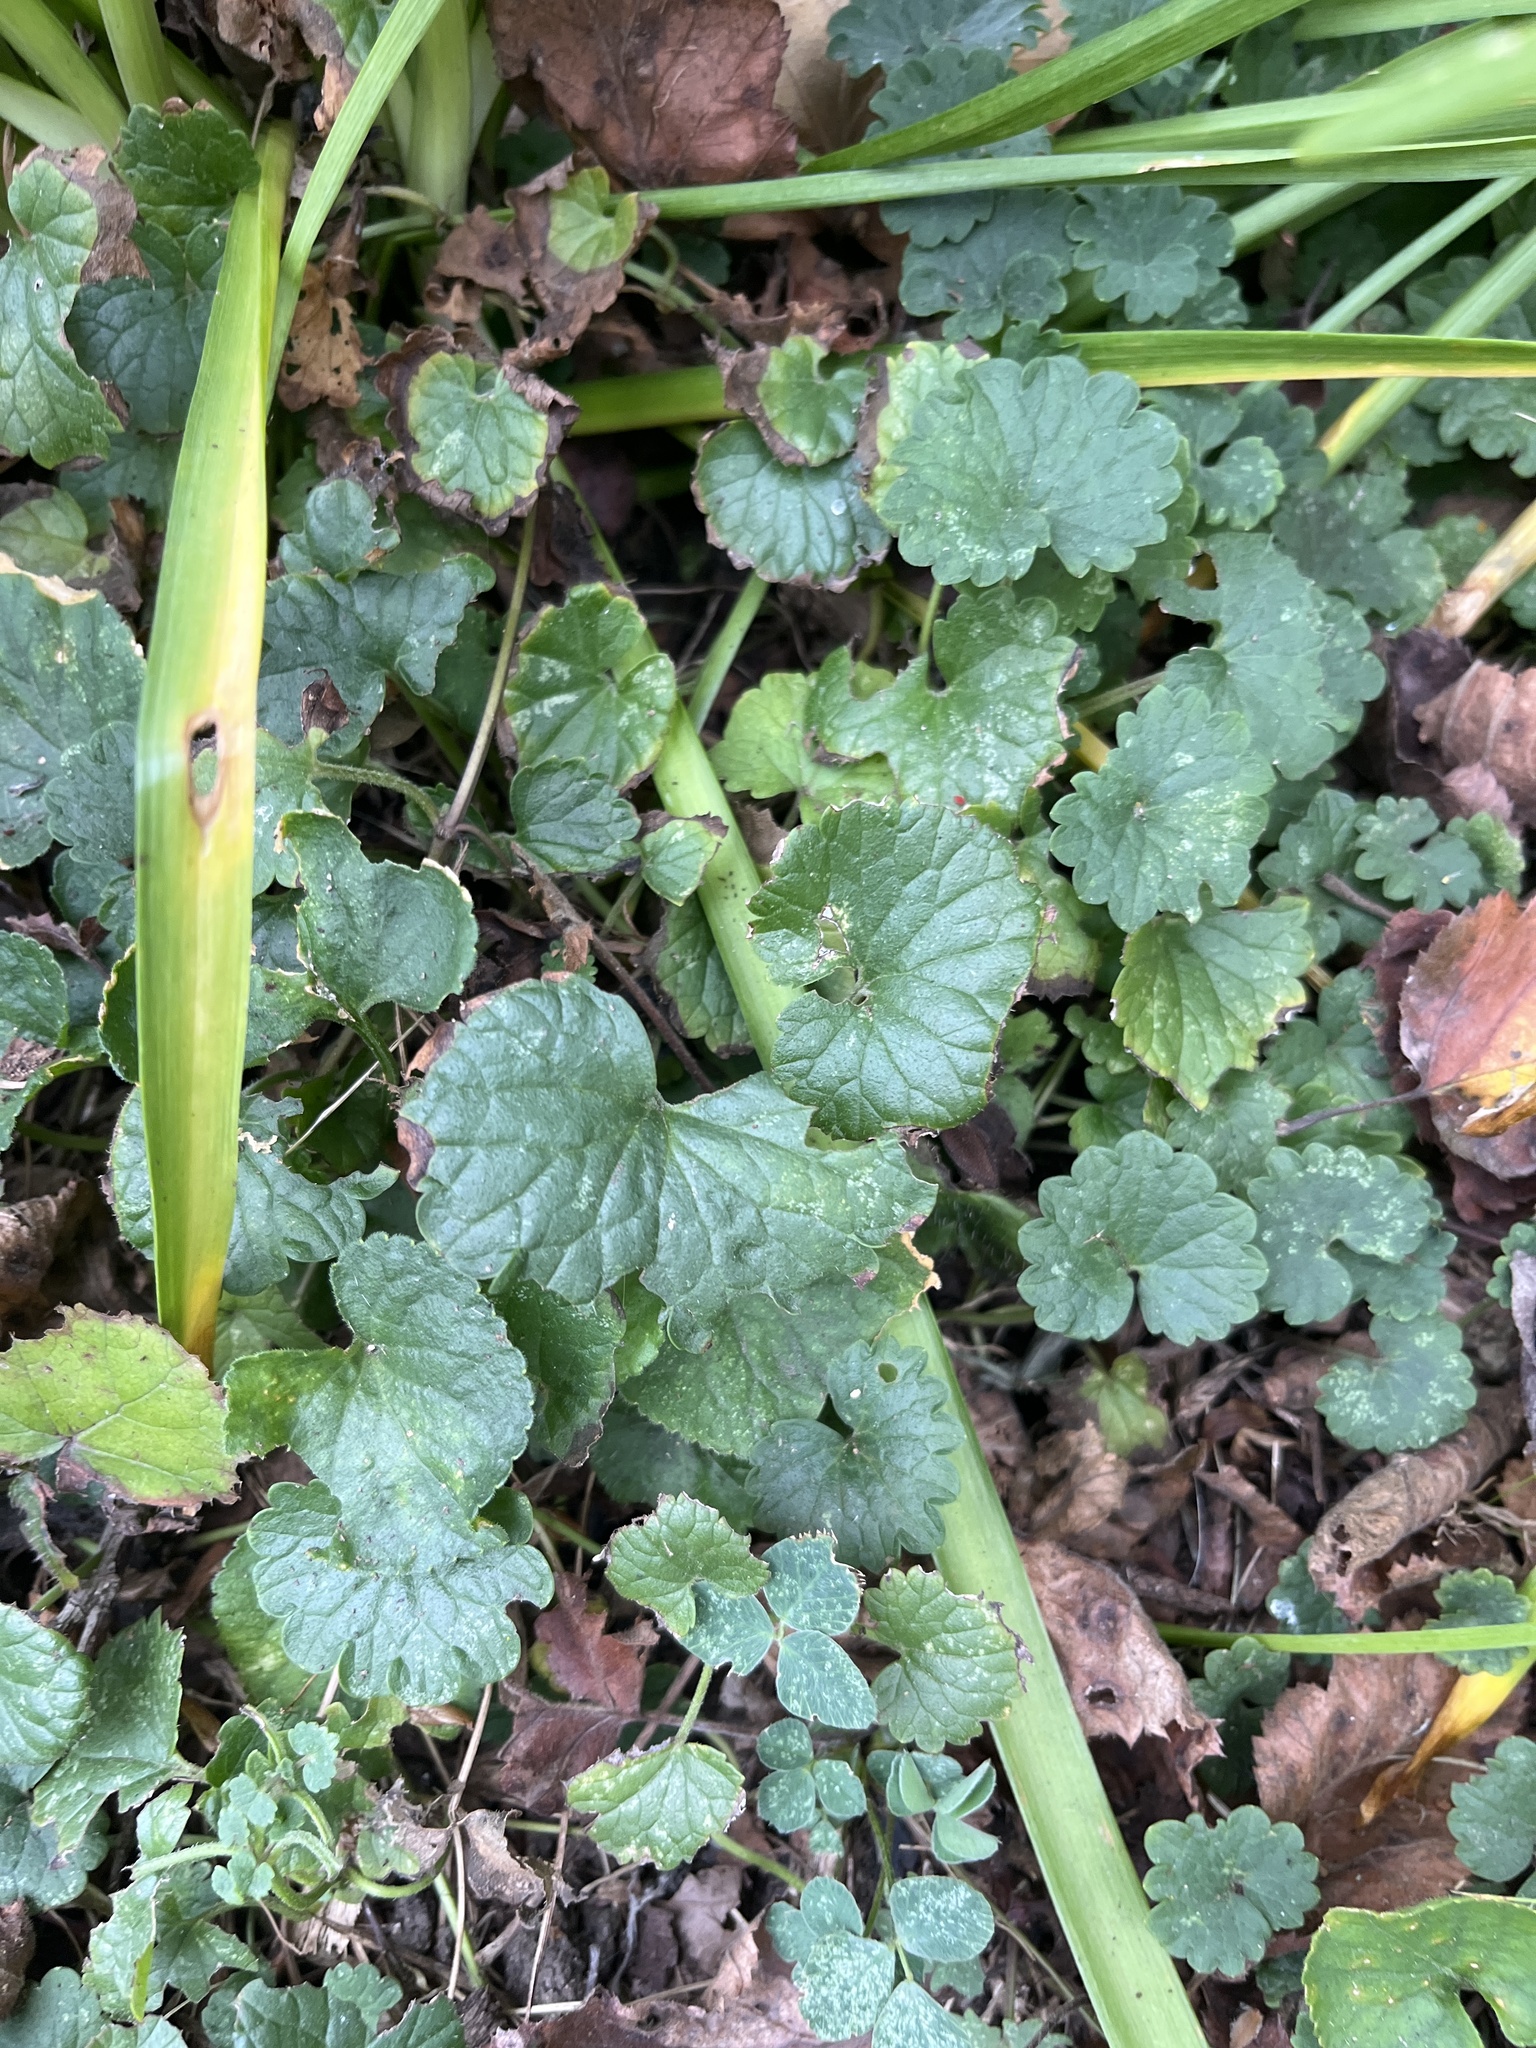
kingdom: Plantae
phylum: Tracheophyta
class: Magnoliopsida
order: Lamiales
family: Lamiaceae
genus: Glechoma
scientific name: Glechoma hederacea
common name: Ground ivy
